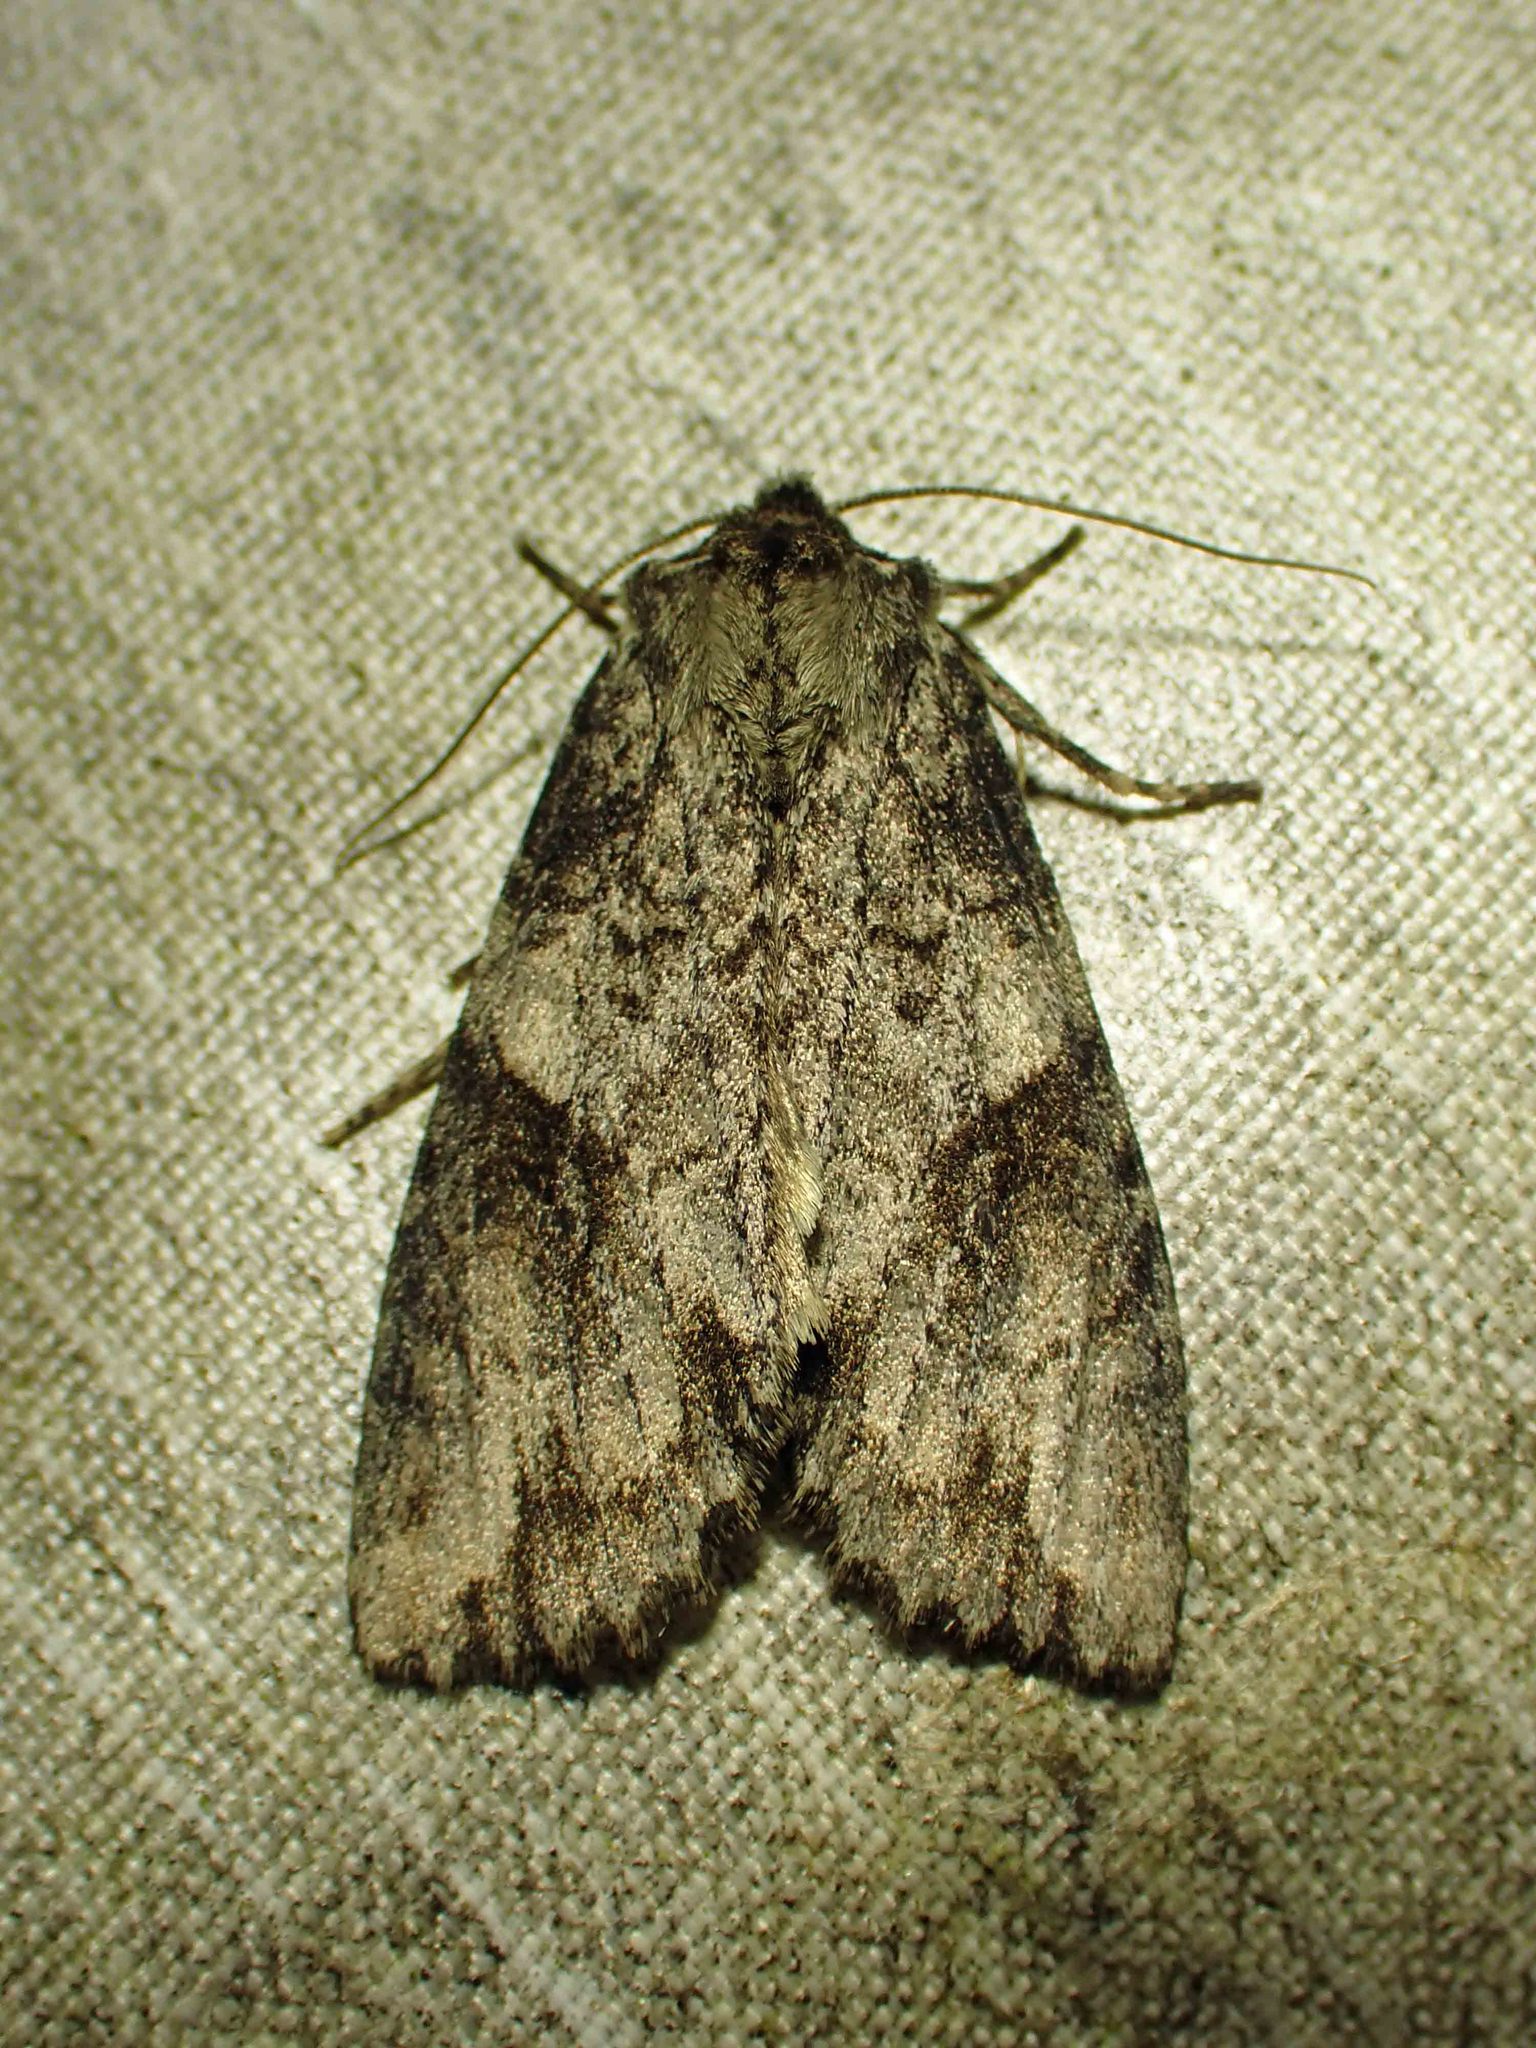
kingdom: Animalia
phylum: Arthropoda
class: Insecta
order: Lepidoptera
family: Noctuidae
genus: Achatia
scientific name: Achatia latex
